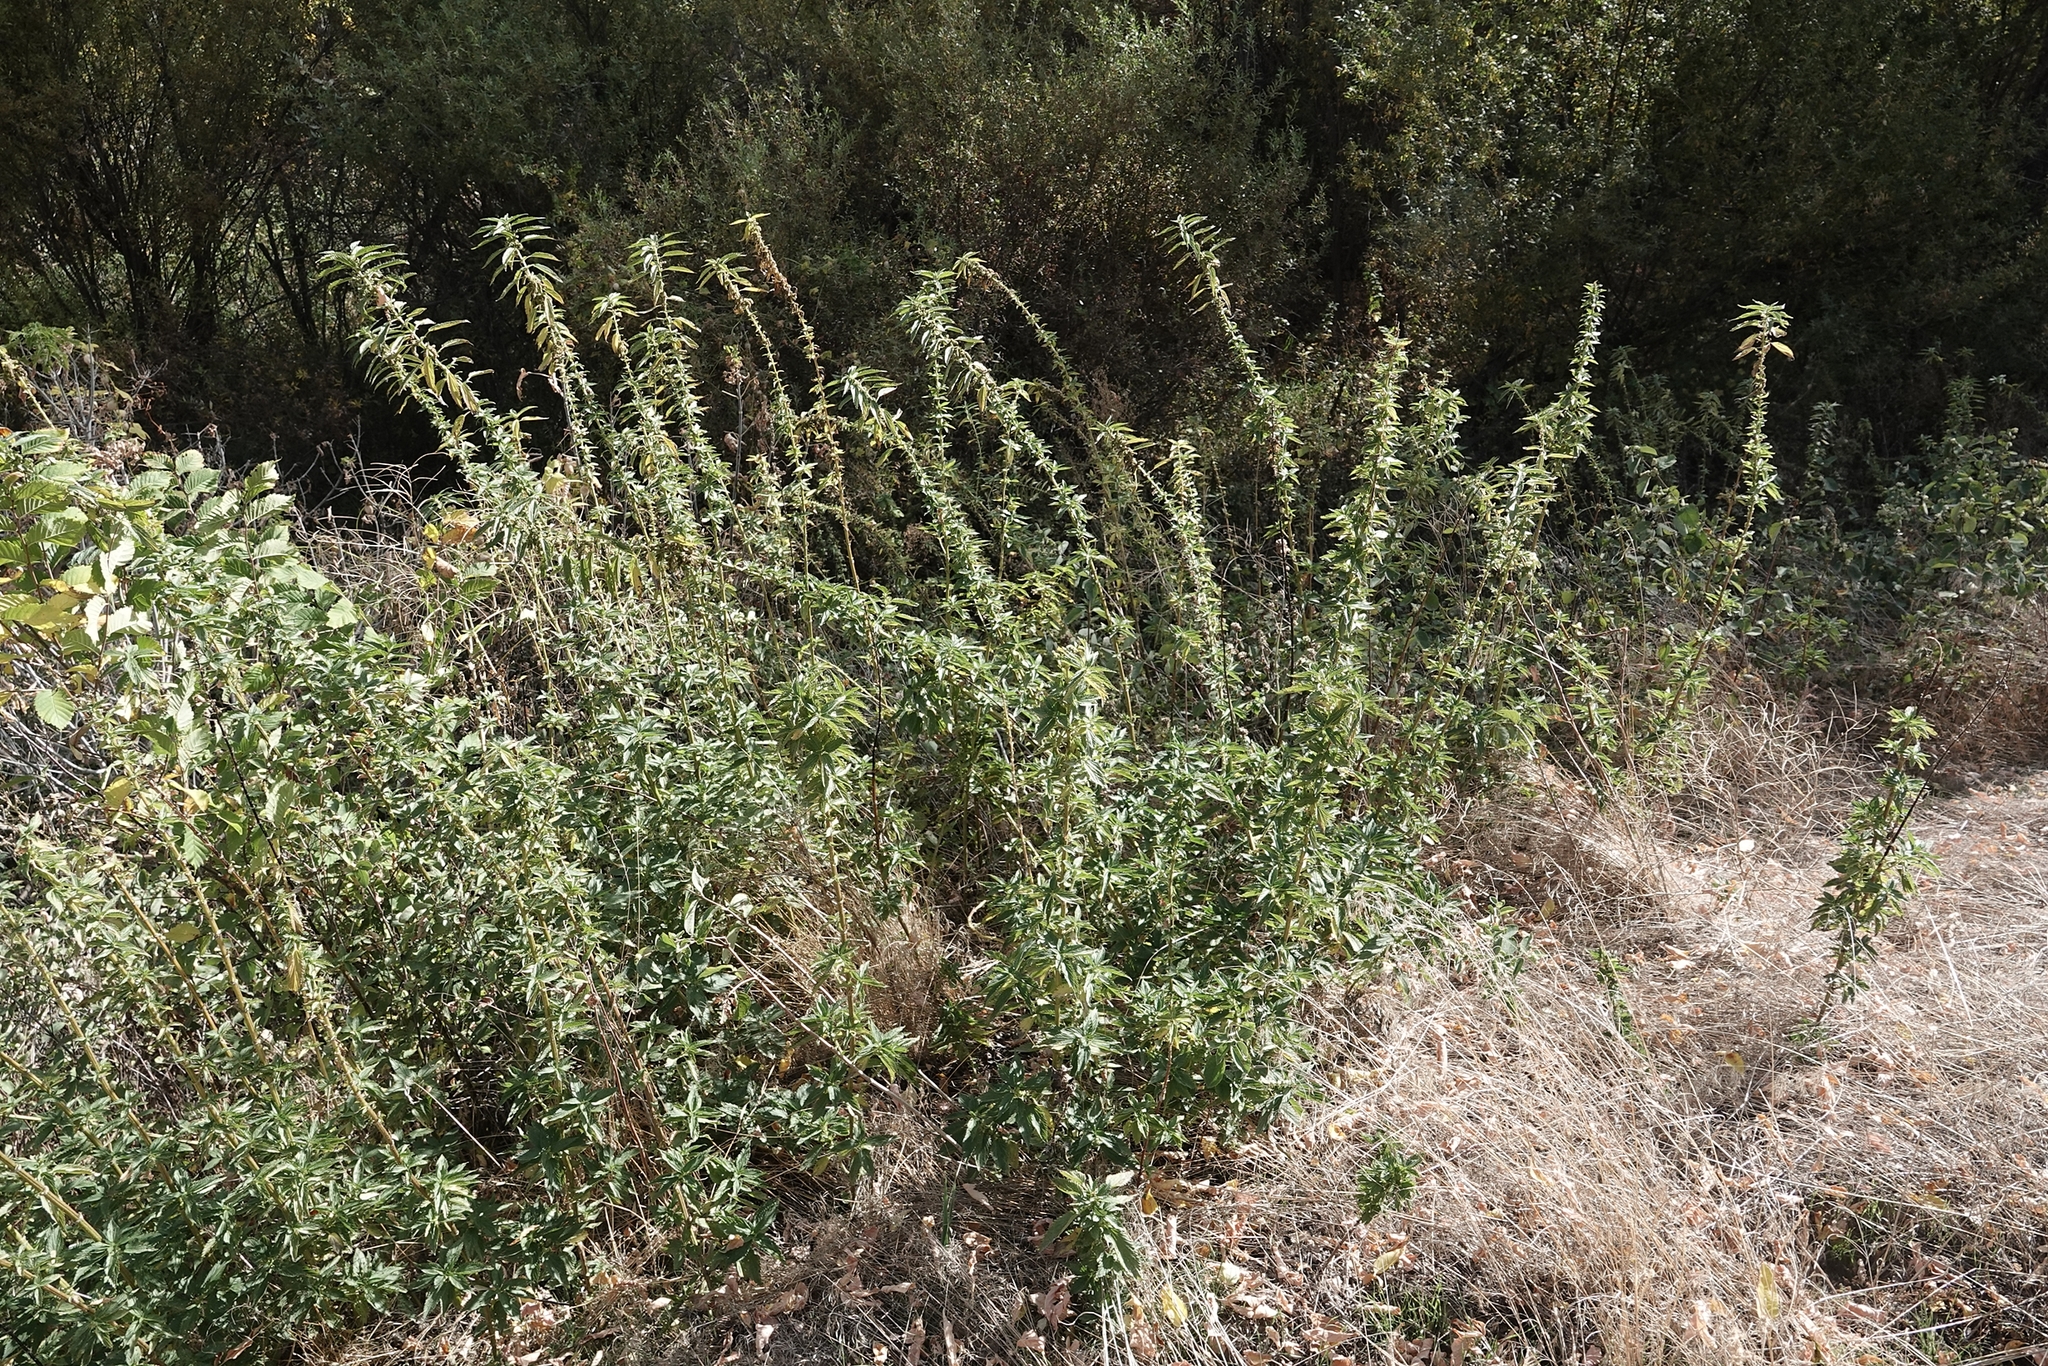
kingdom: Plantae
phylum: Tracheophyta
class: Magnoliopsida
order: Rosales
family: Urticaceae
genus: Urtica
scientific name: Urtica dioica
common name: Common nettle
